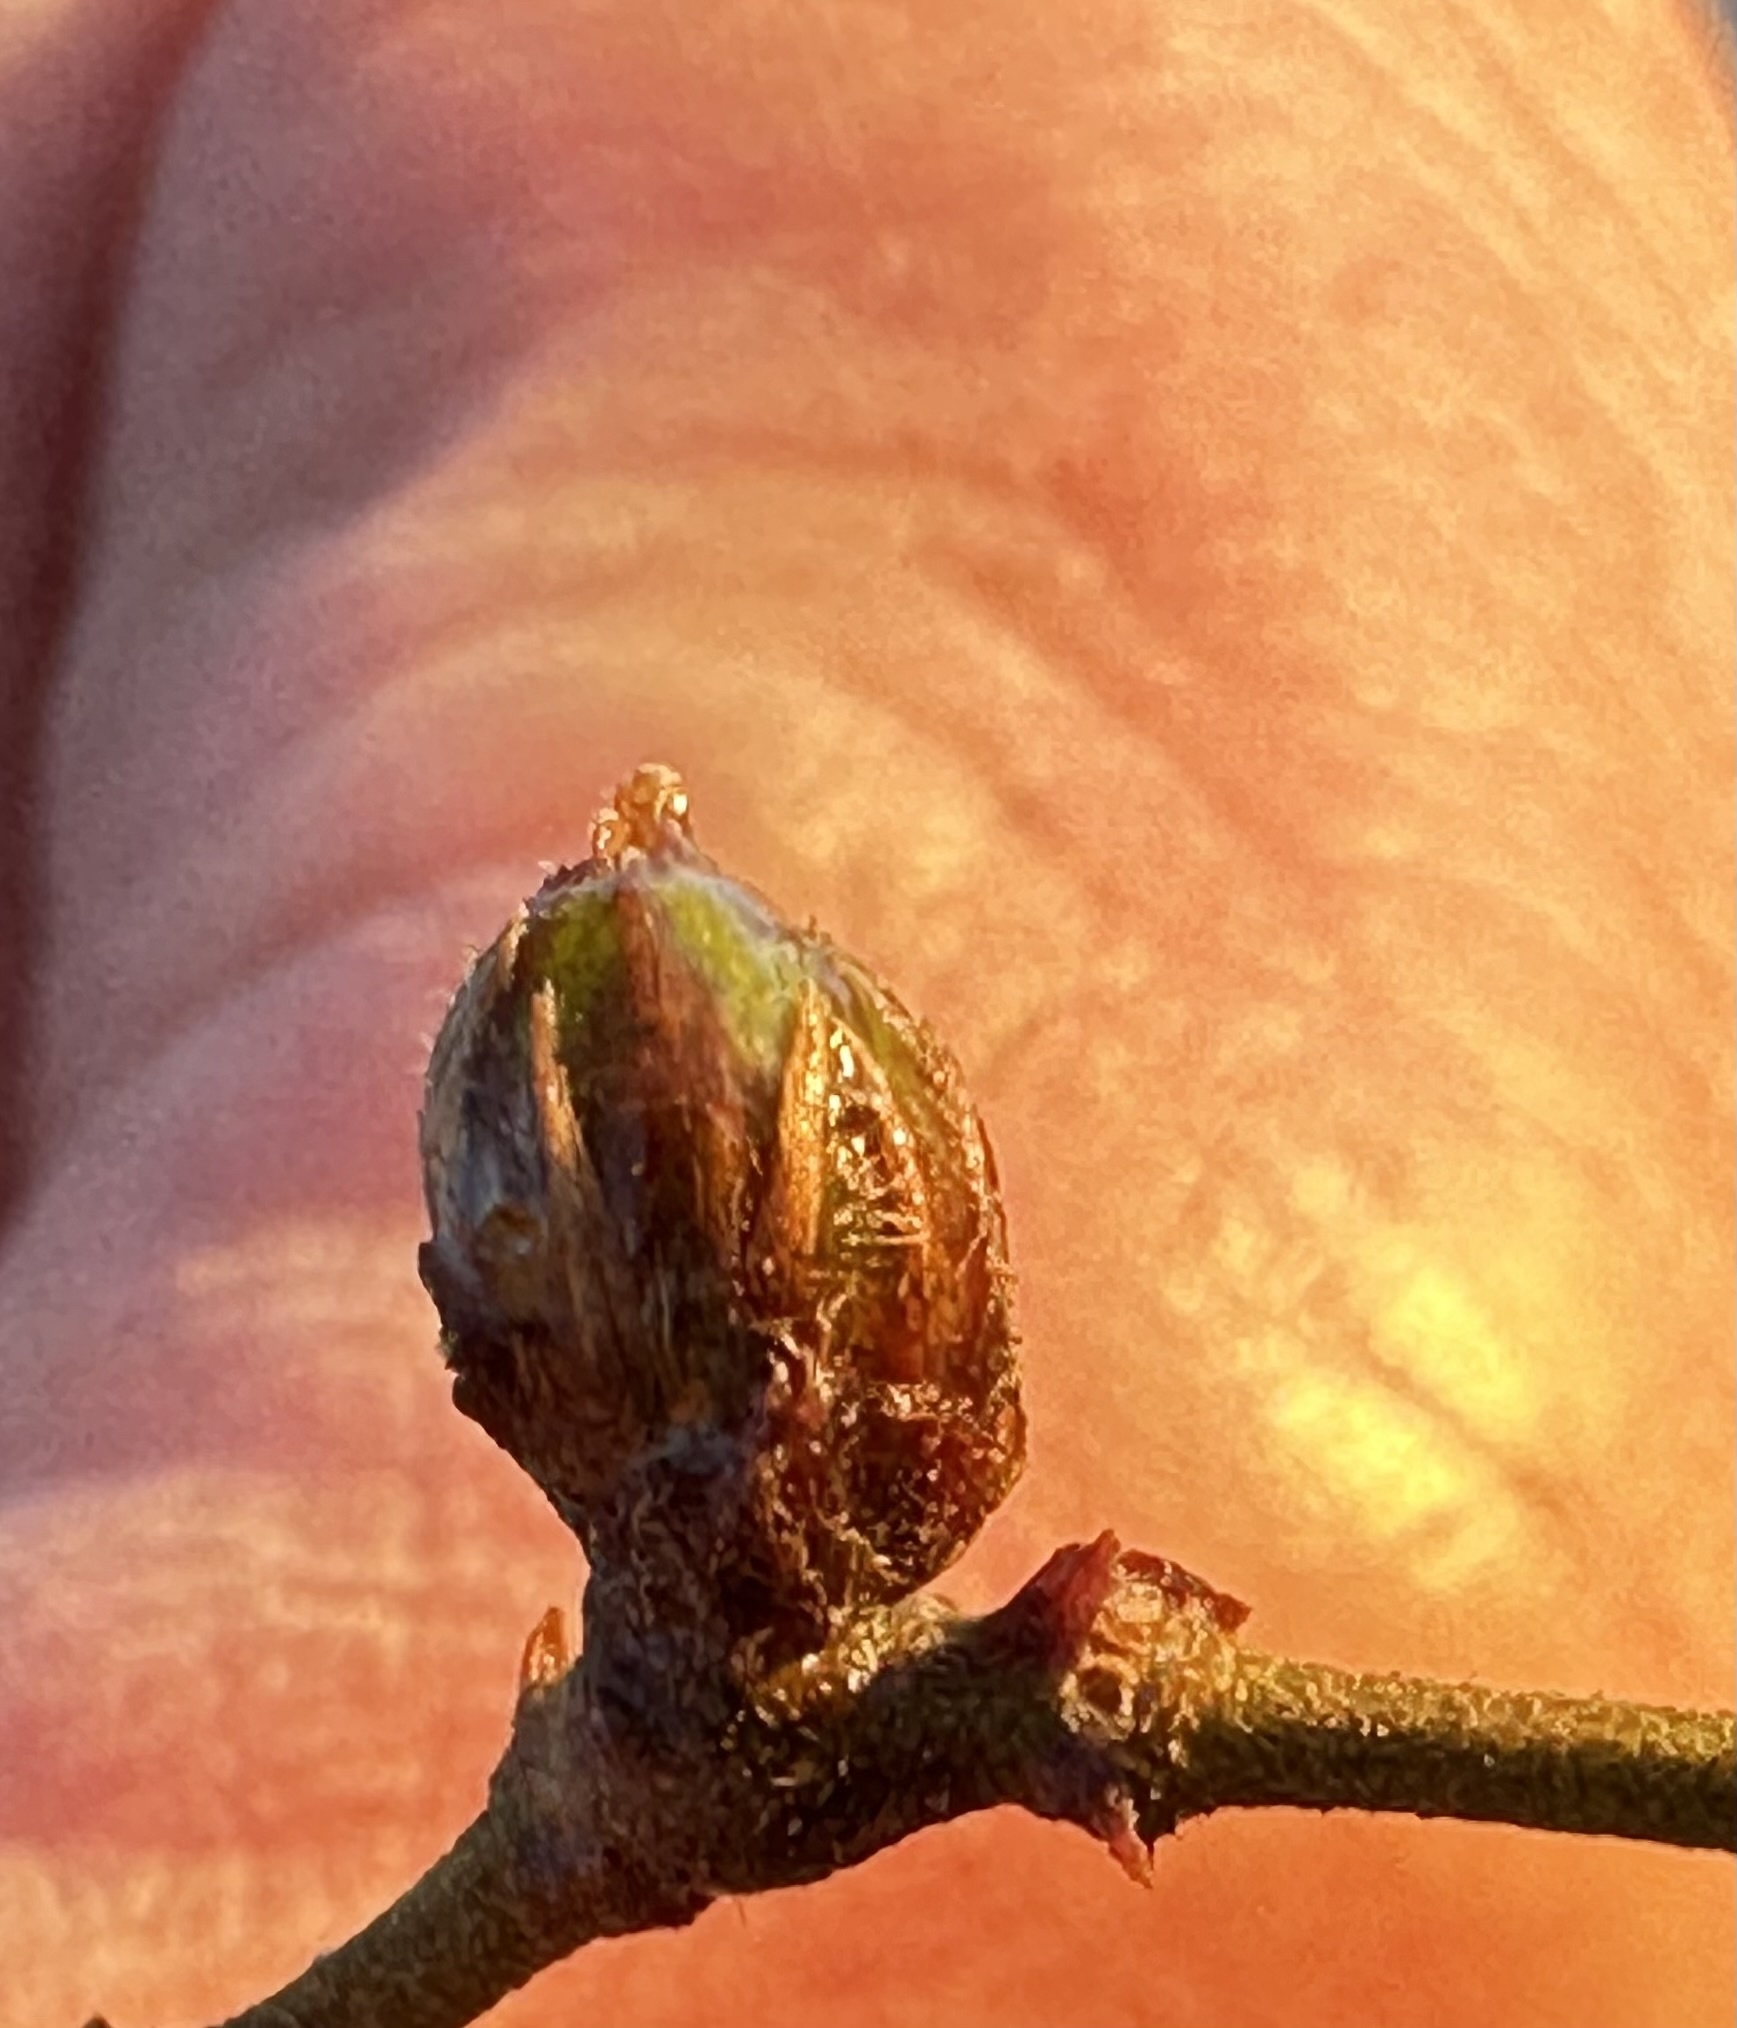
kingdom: Animalia
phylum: Arthropoda
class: Insecta
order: Diptera
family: Cecidomyiidae
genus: Asphondylia
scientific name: Asphondylia resinosa
